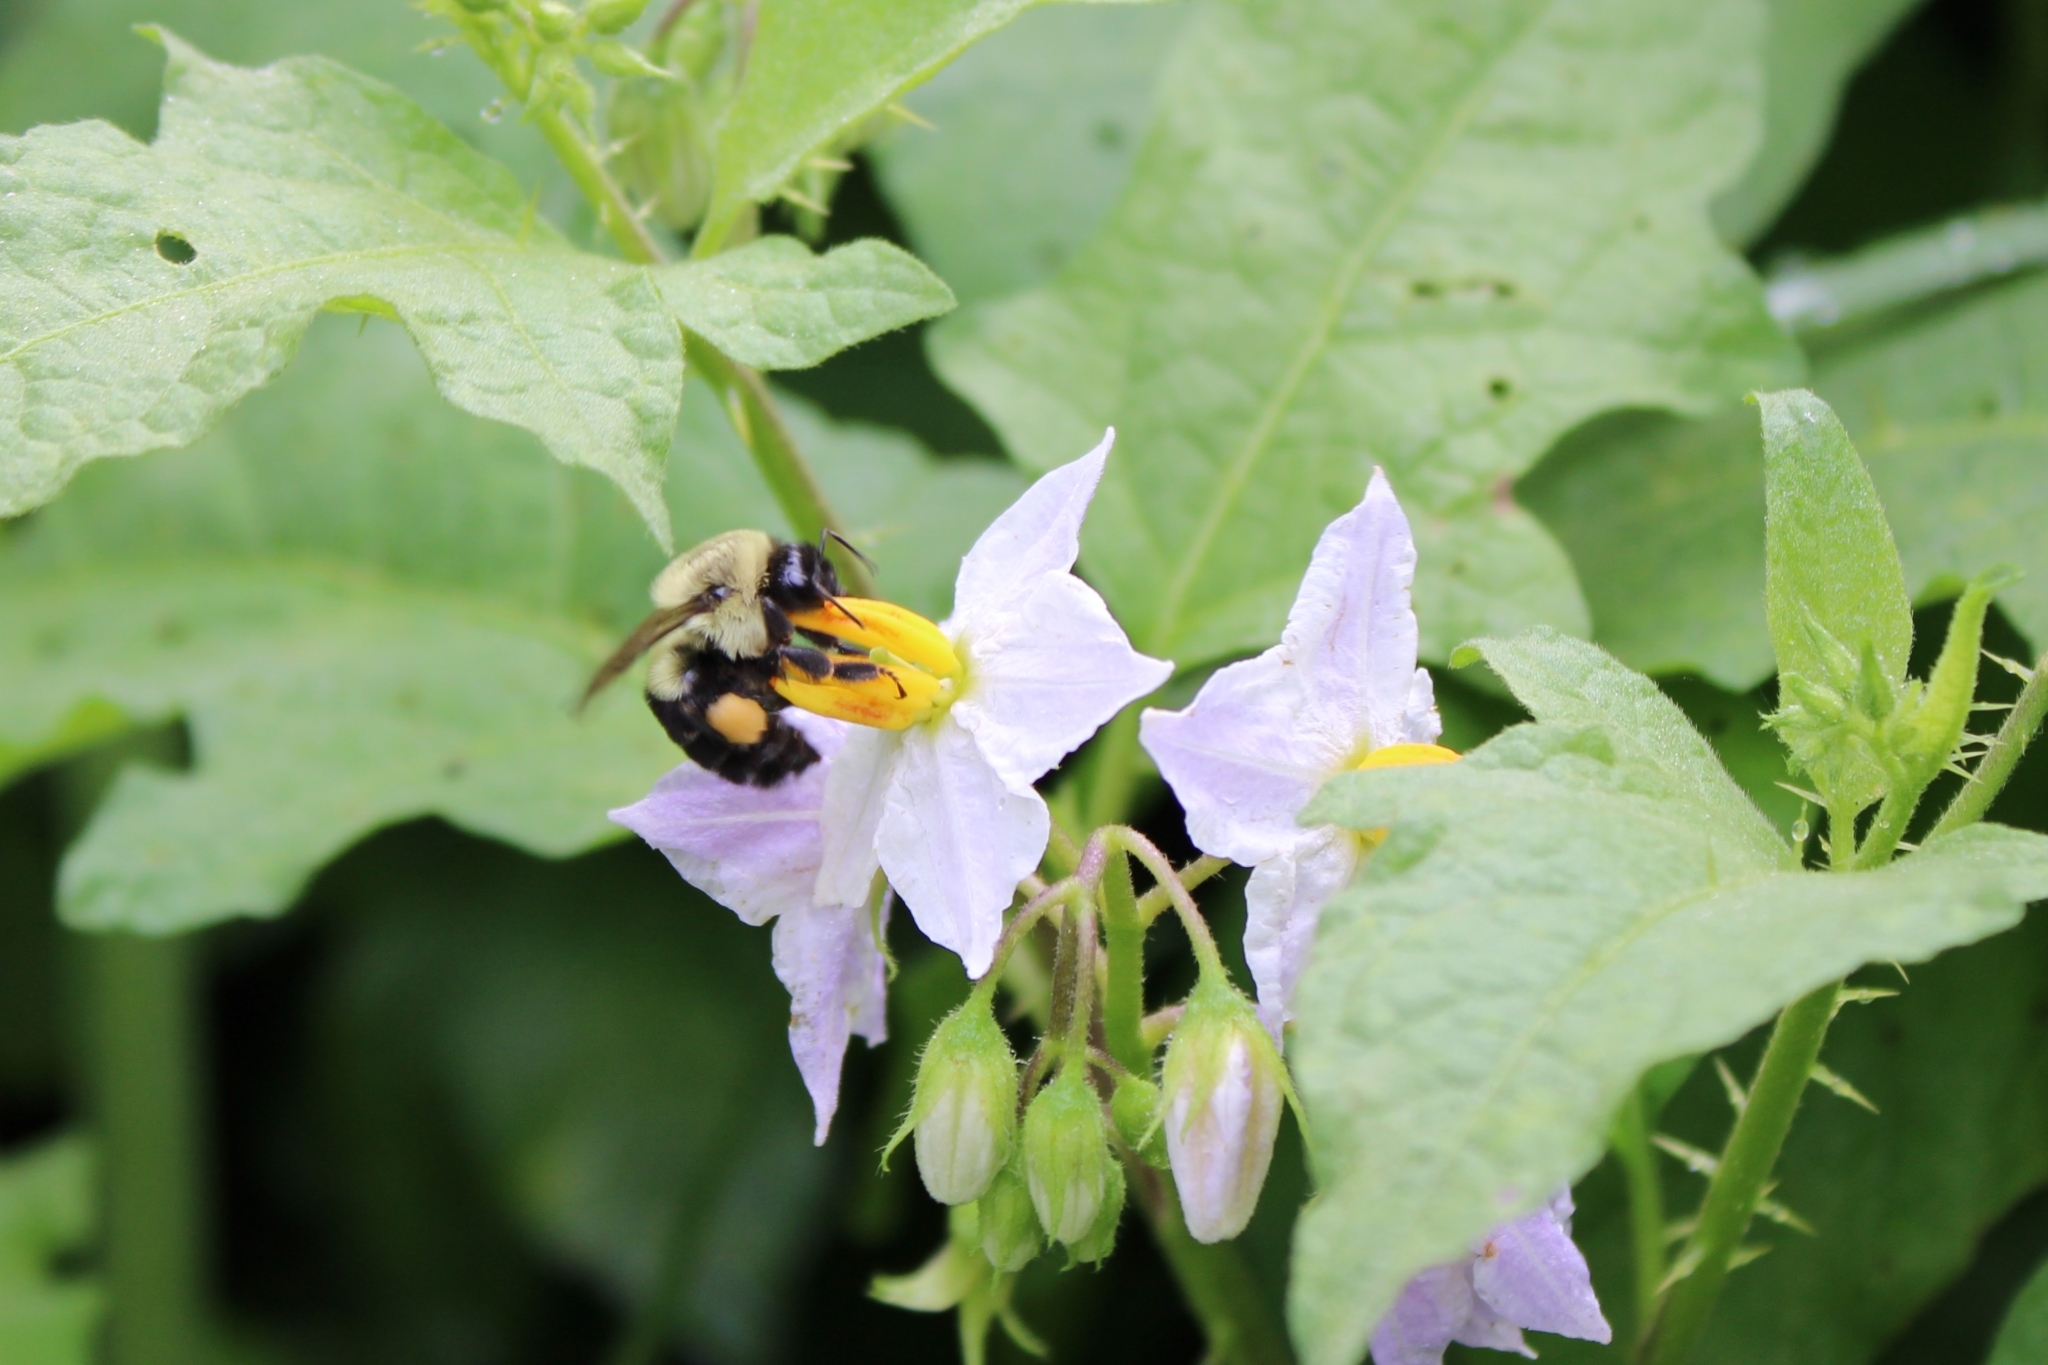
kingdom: Animalia
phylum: Arthropoda
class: Insecta
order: Hymenoptera
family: Apidae
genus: Bombus
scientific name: Bombus impatiens
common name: Common eastern bumble bee
